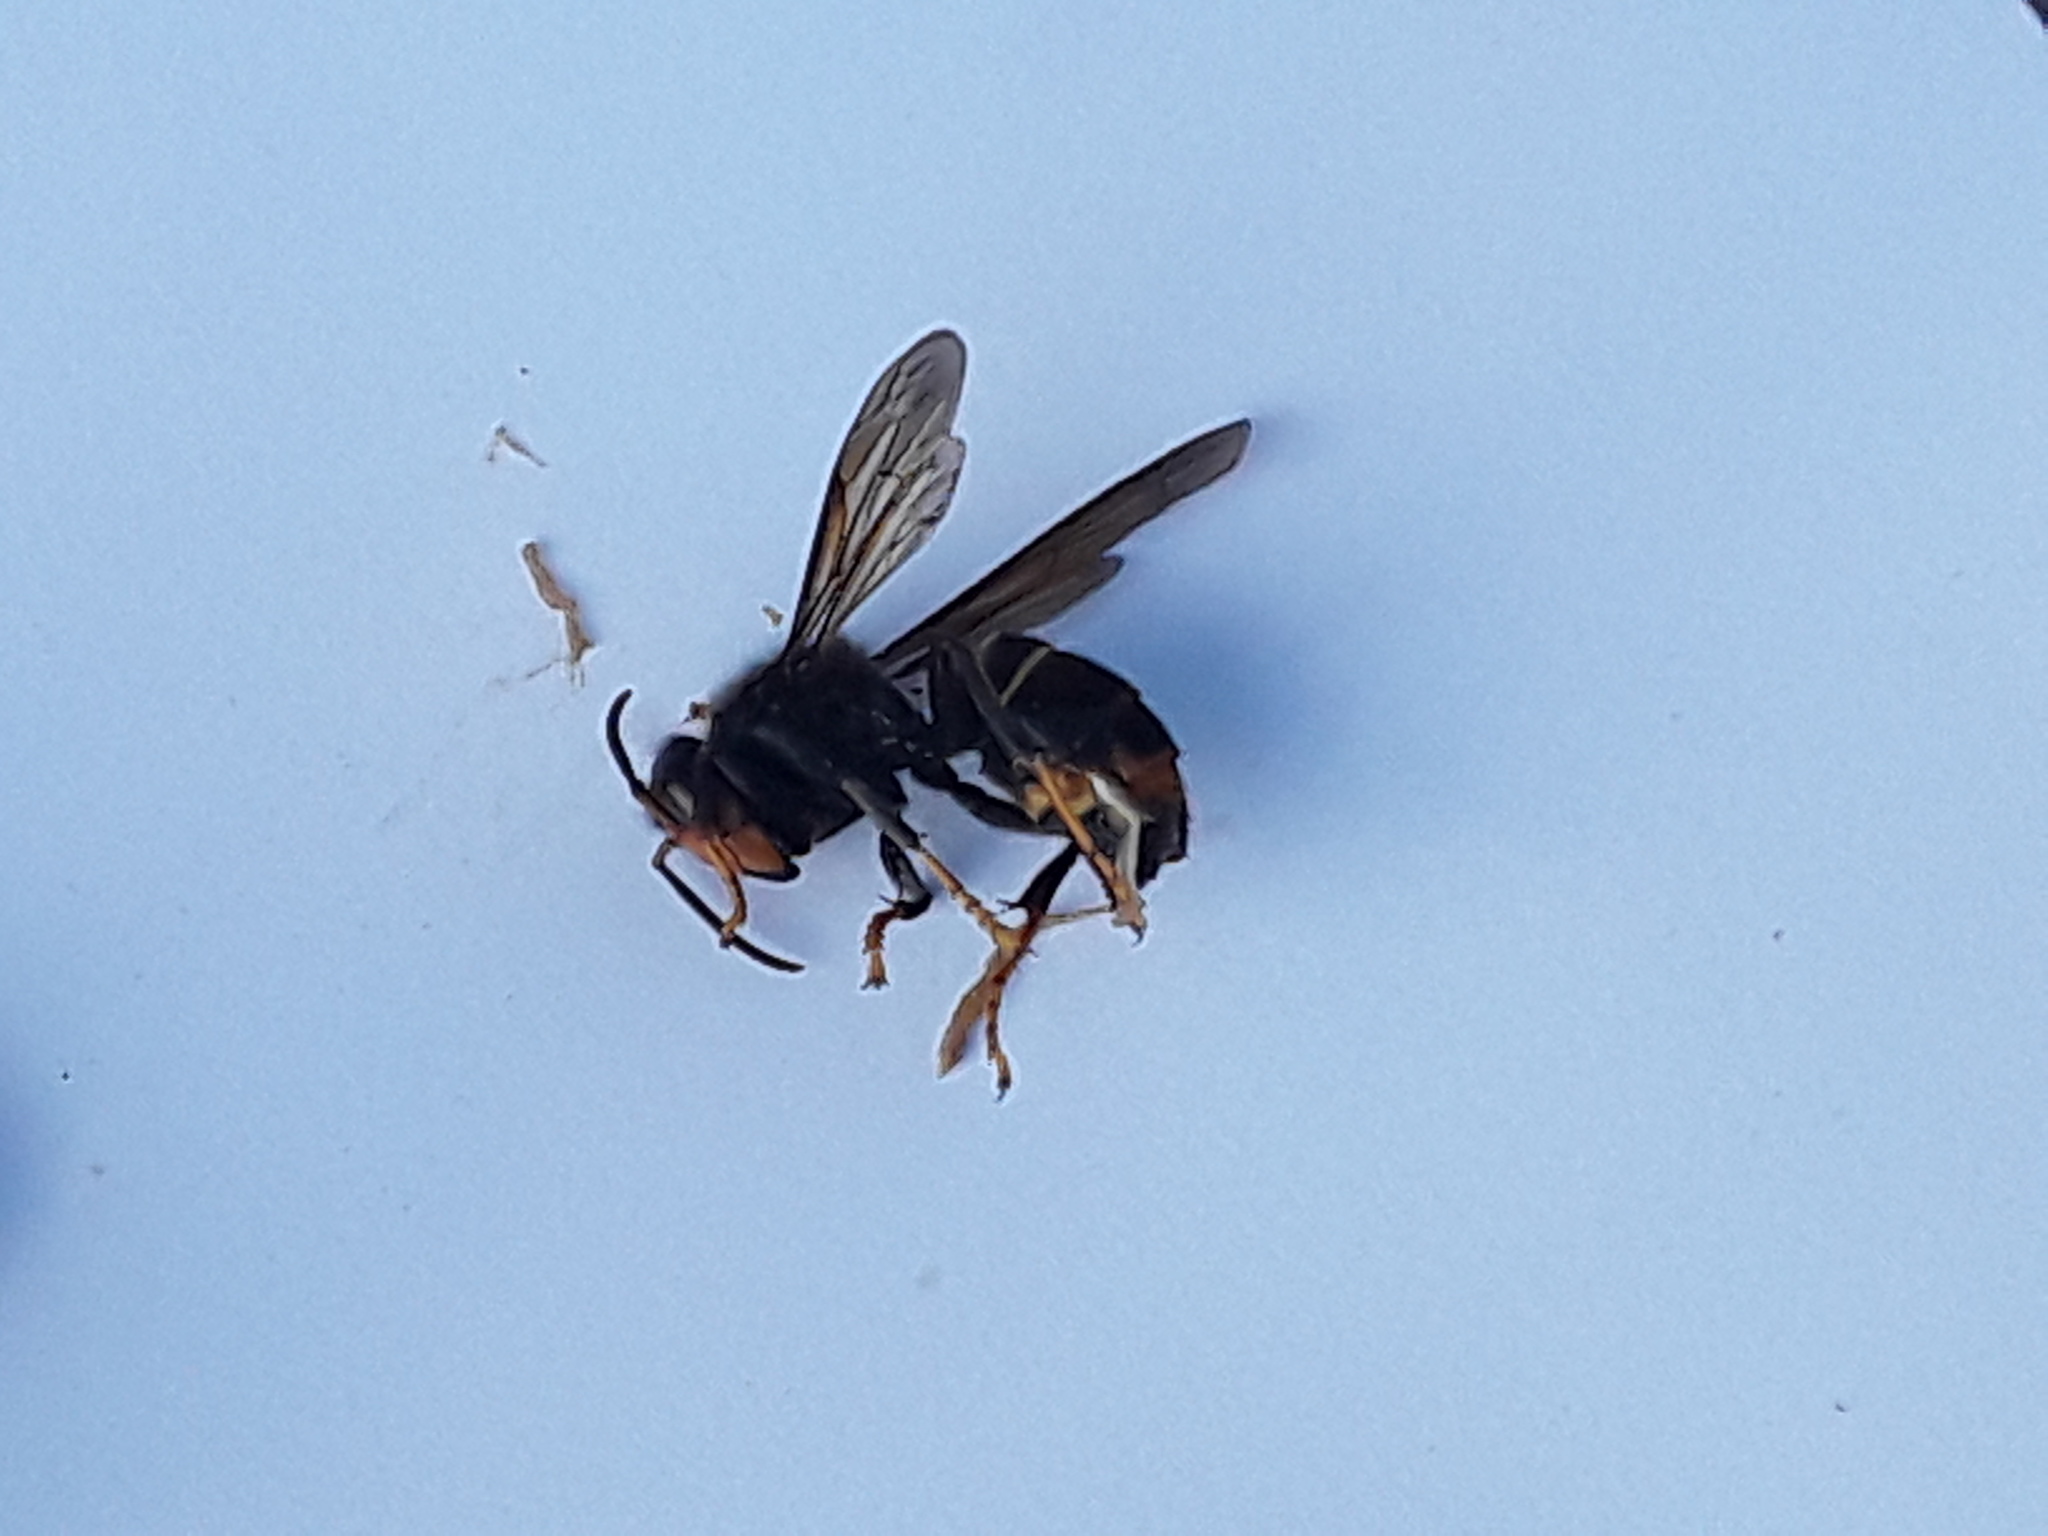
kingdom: Animalia
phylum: Arthropoda
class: Insecta
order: Hymenoptera
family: Vespidae
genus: Vespa
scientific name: Vespa velutina
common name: Asian hornet
